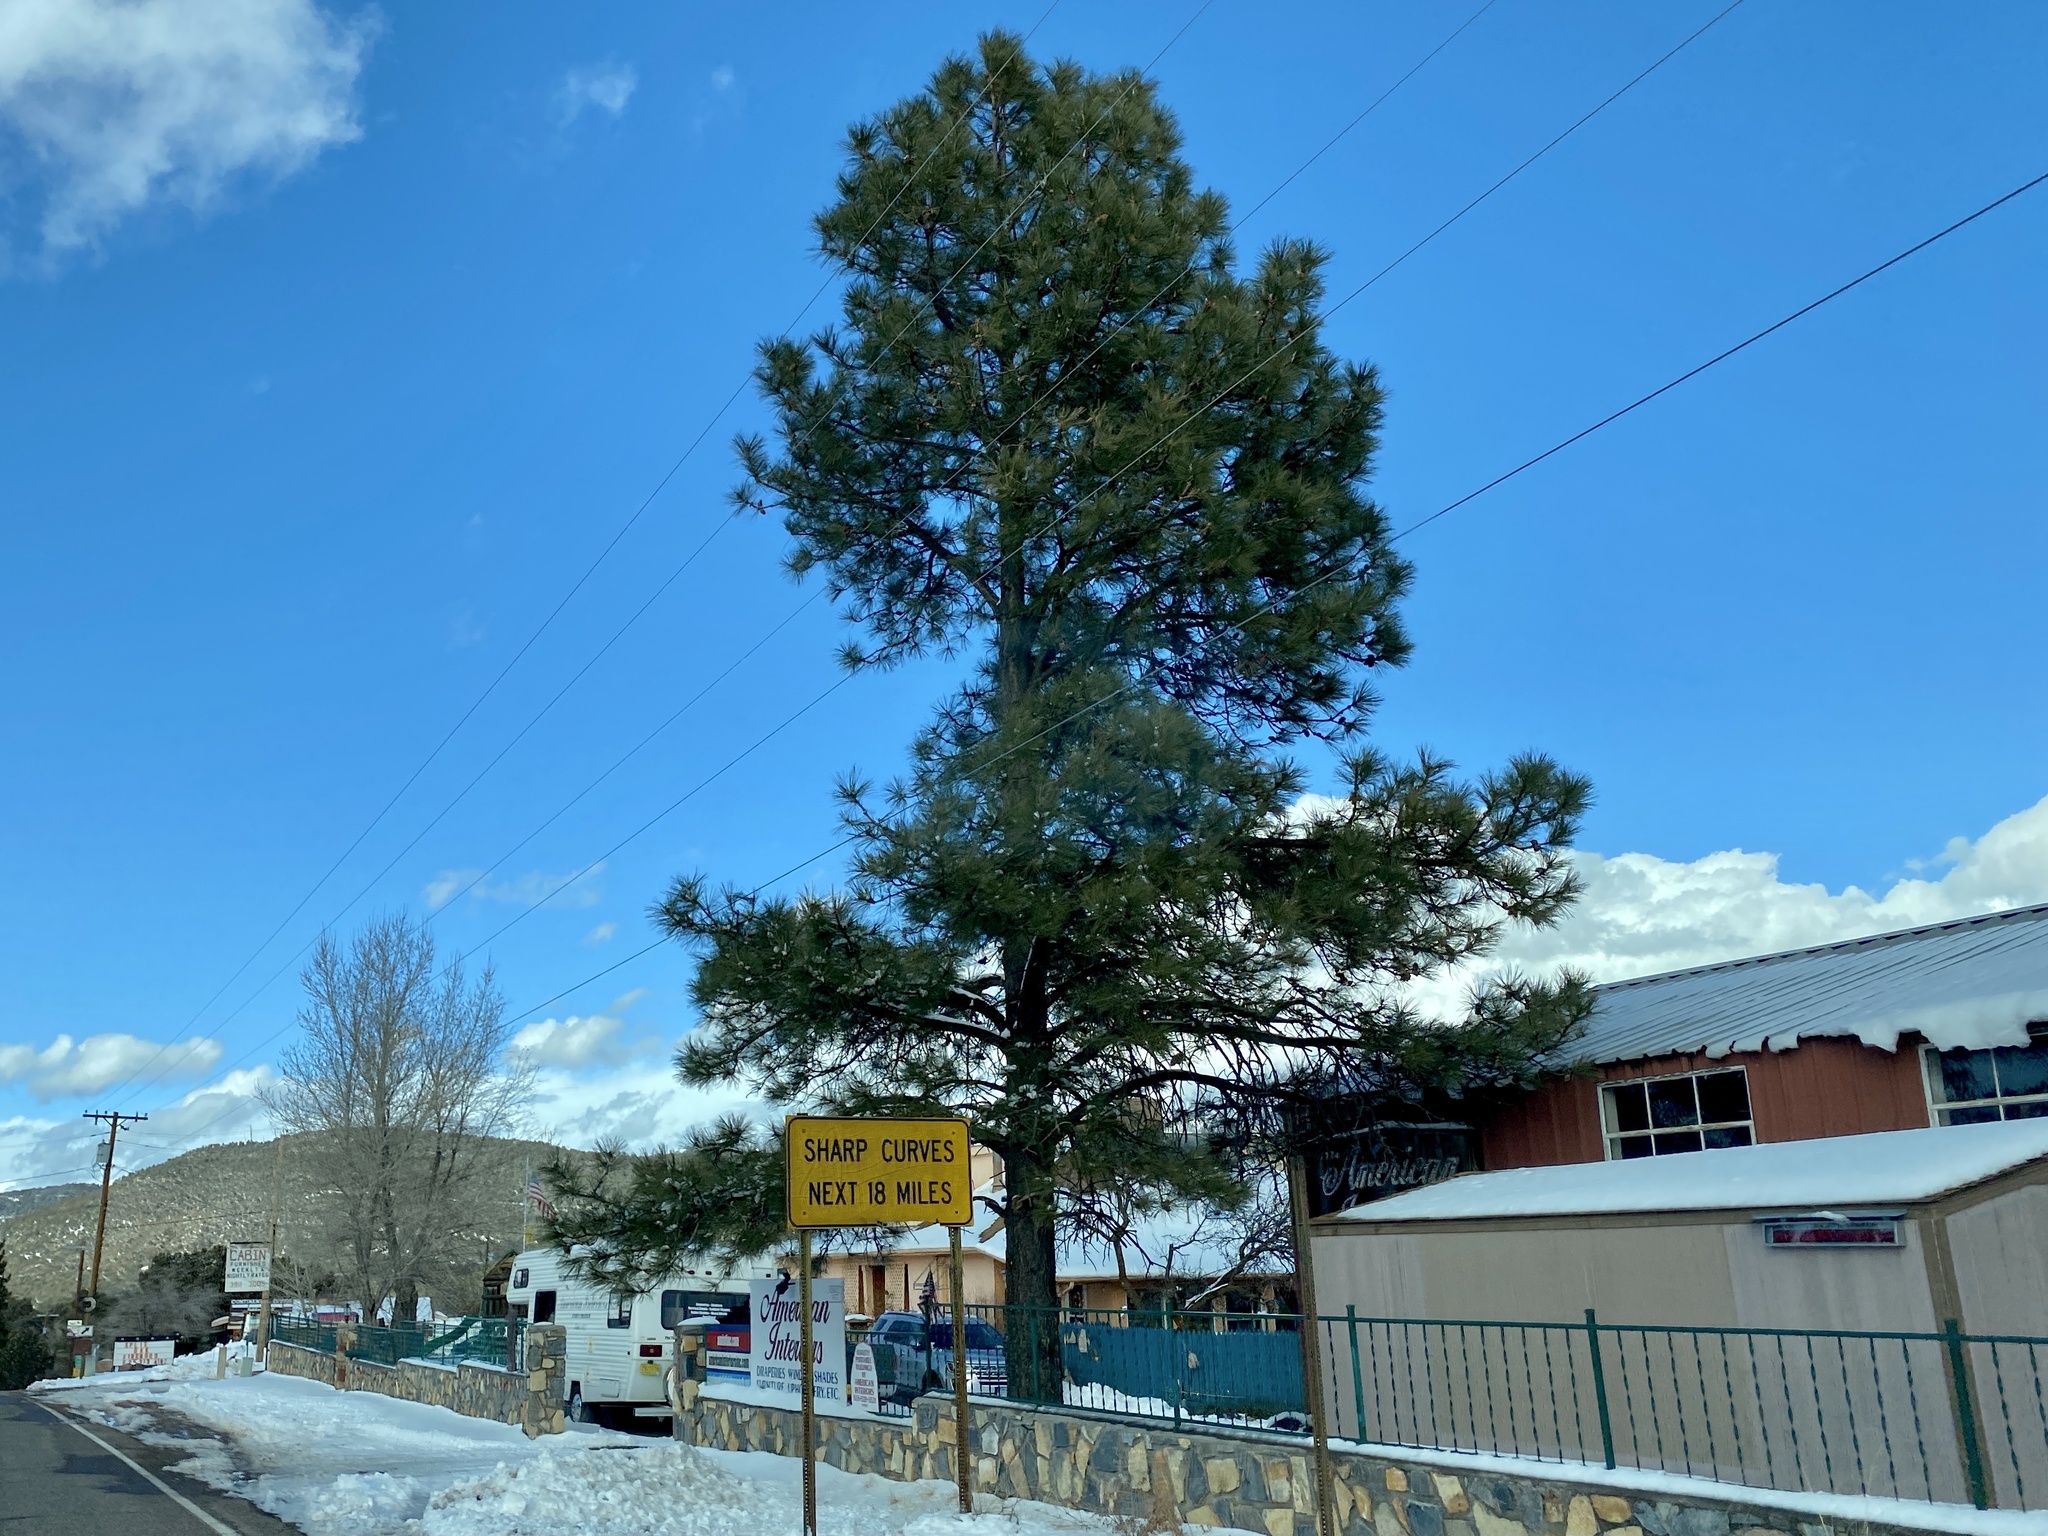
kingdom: Plantae
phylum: Tracheophyta
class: Pinopsida
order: Pinales
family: Pinaceae
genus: Pinus
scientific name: Pinus ponderosa
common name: Western yellow-pine
